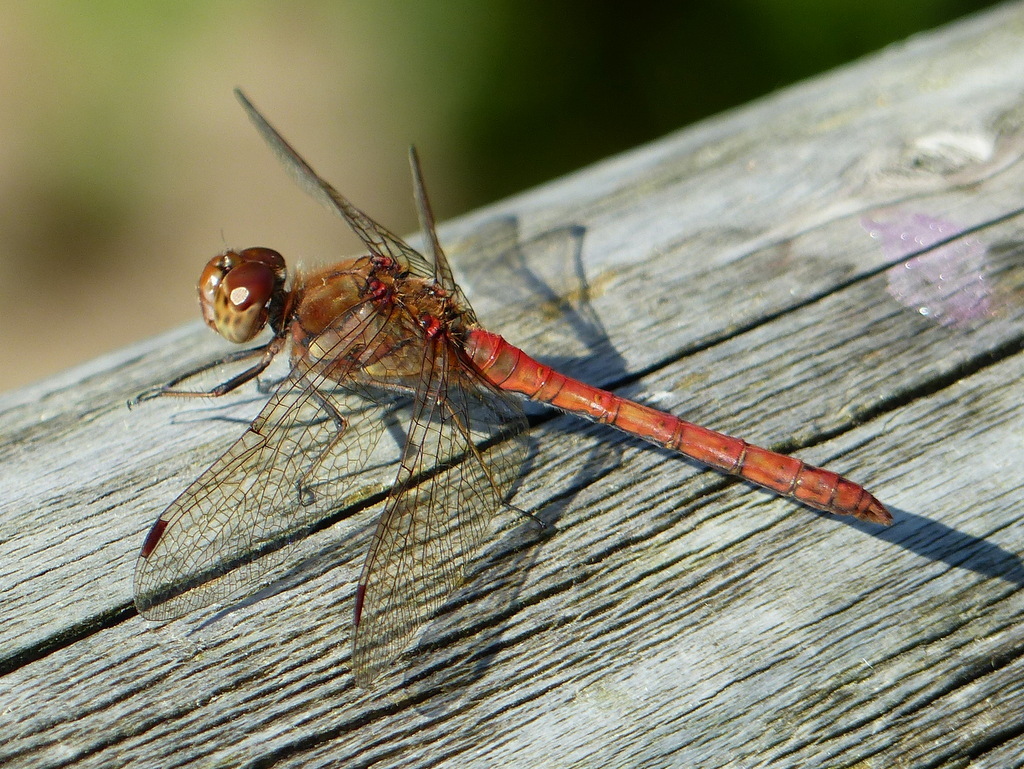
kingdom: Animalia
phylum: Arthropoda
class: Insecta
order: Odonata
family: Libellulidae
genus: Sympetrum
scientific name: Sympetrum striolatum
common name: Common darter
